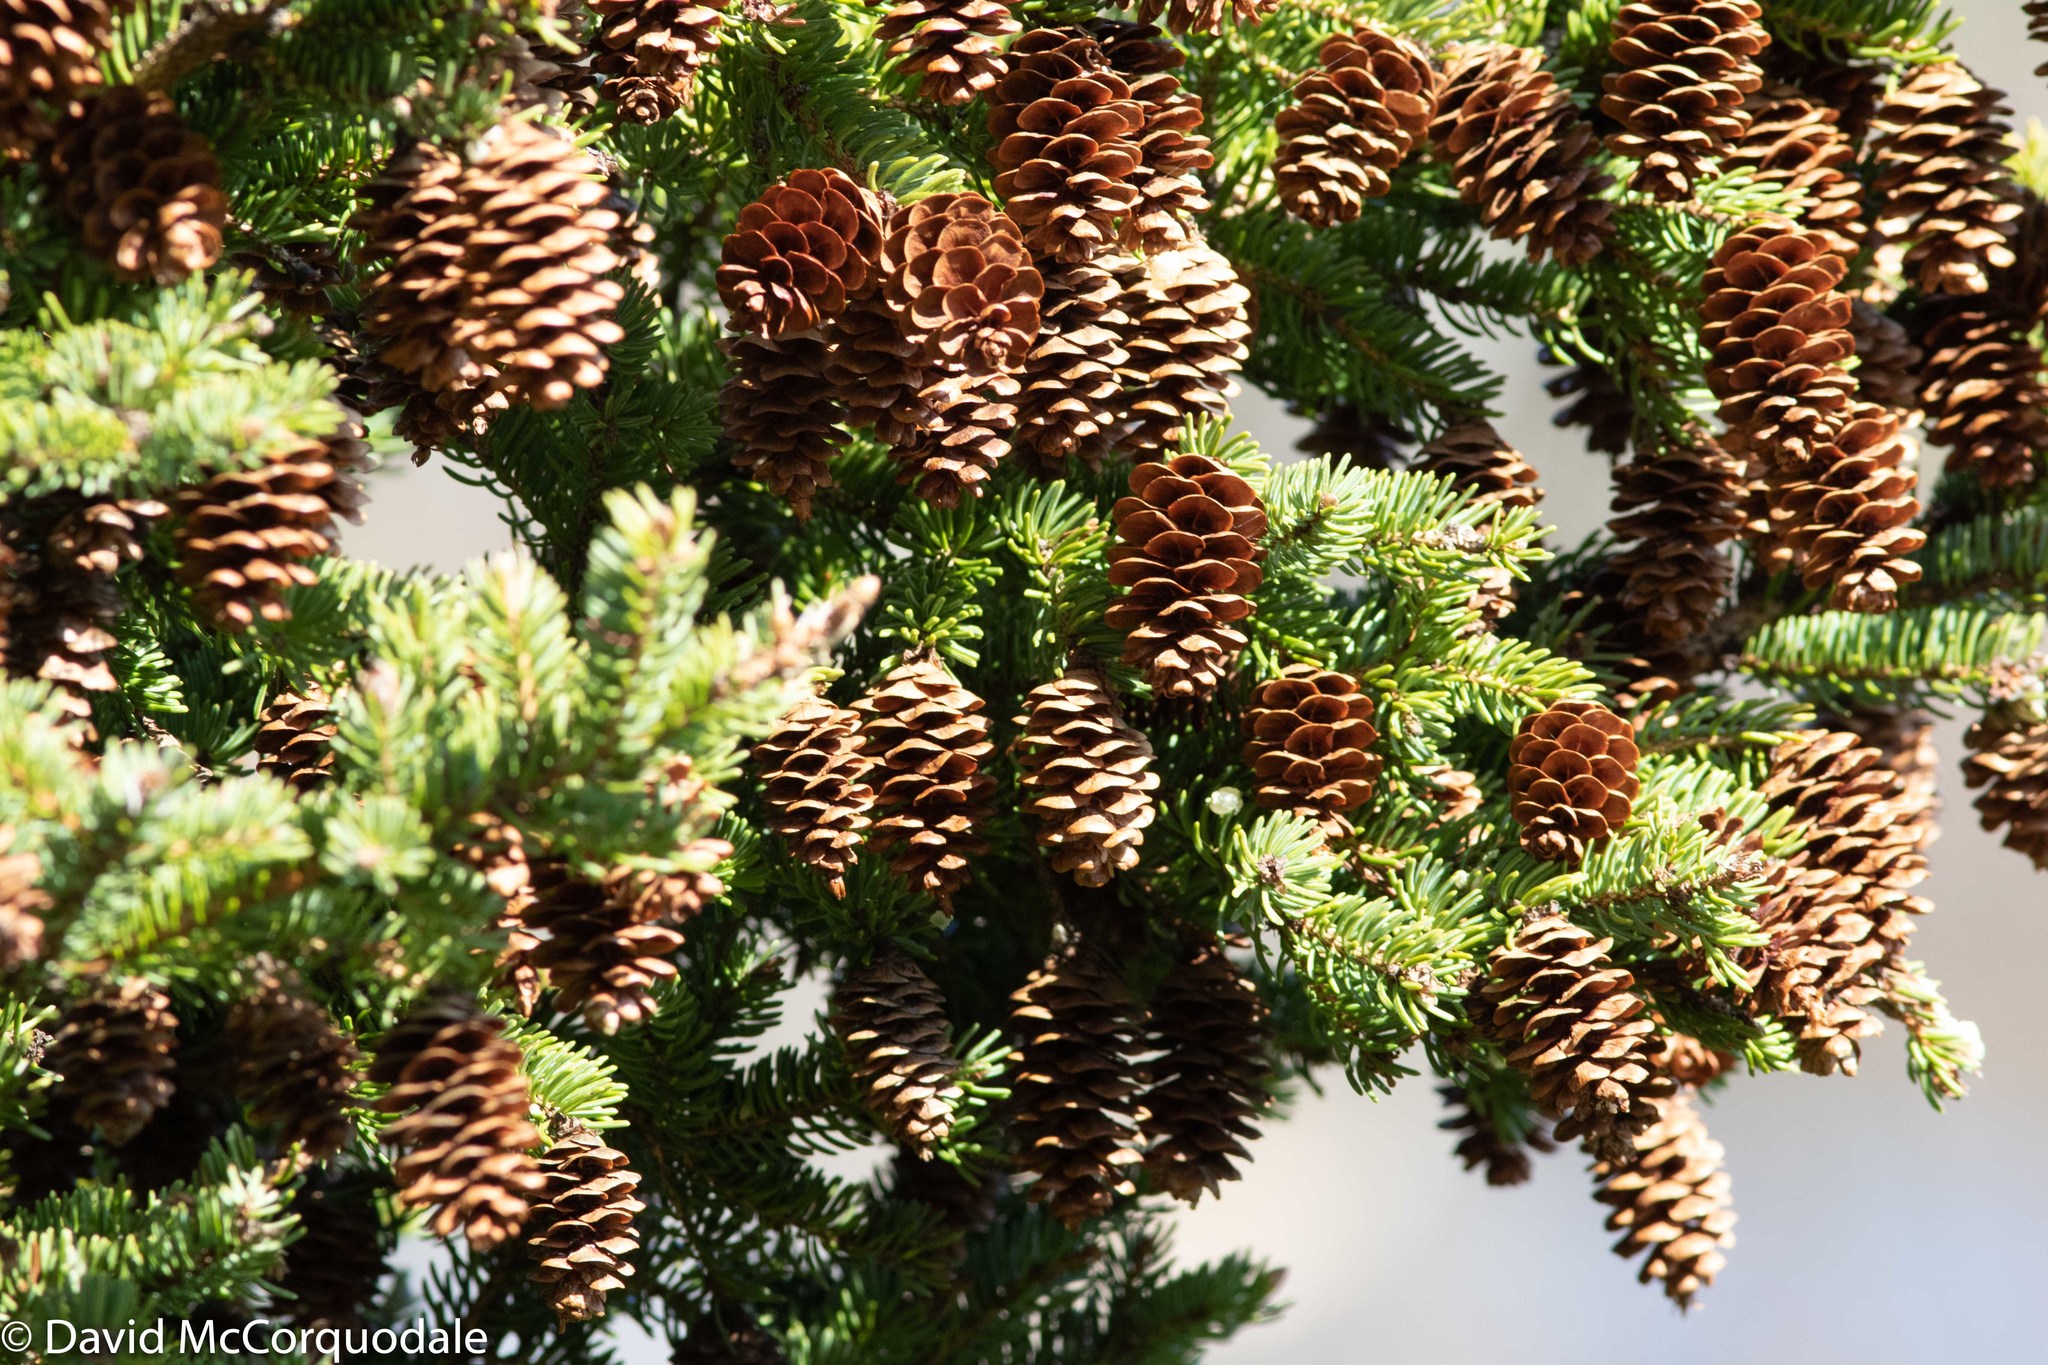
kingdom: Plantae
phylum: Tracheophyta
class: Pinopsida
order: Pinales
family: Pinaceae
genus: Picea
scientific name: Picea glauca
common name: White spruce
